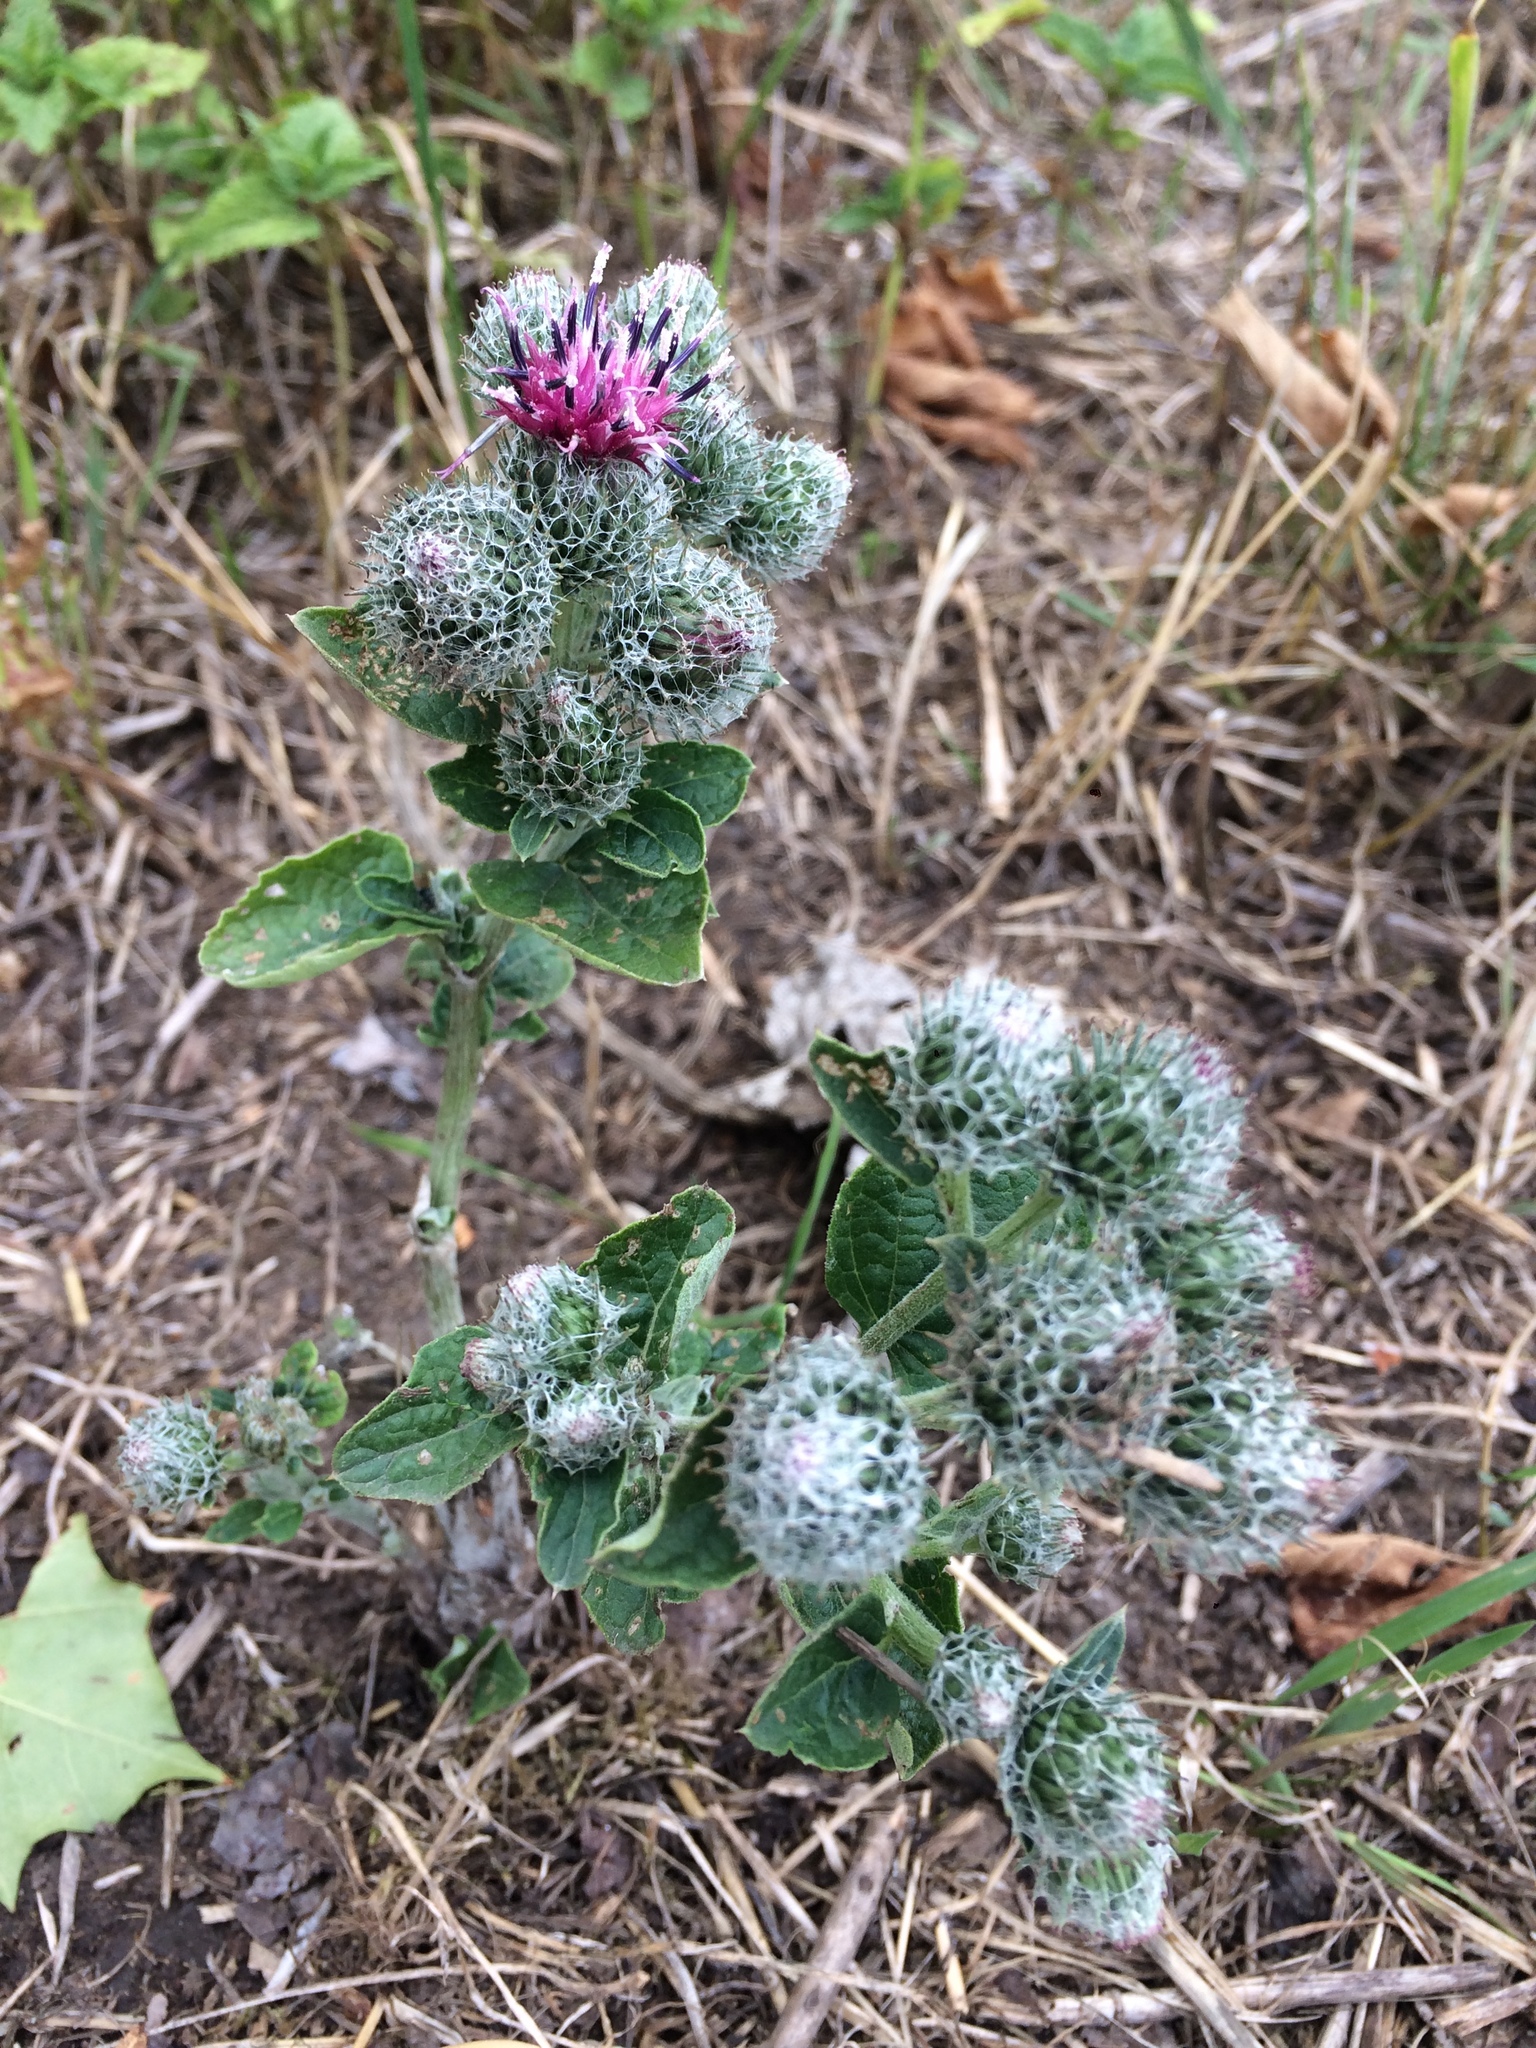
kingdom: Plantae
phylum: Tracheophyta
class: Magnoliopsida
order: Asterales
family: Asteraceae
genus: Arctium
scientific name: Arctium tomentosum
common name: Woolly burdock
